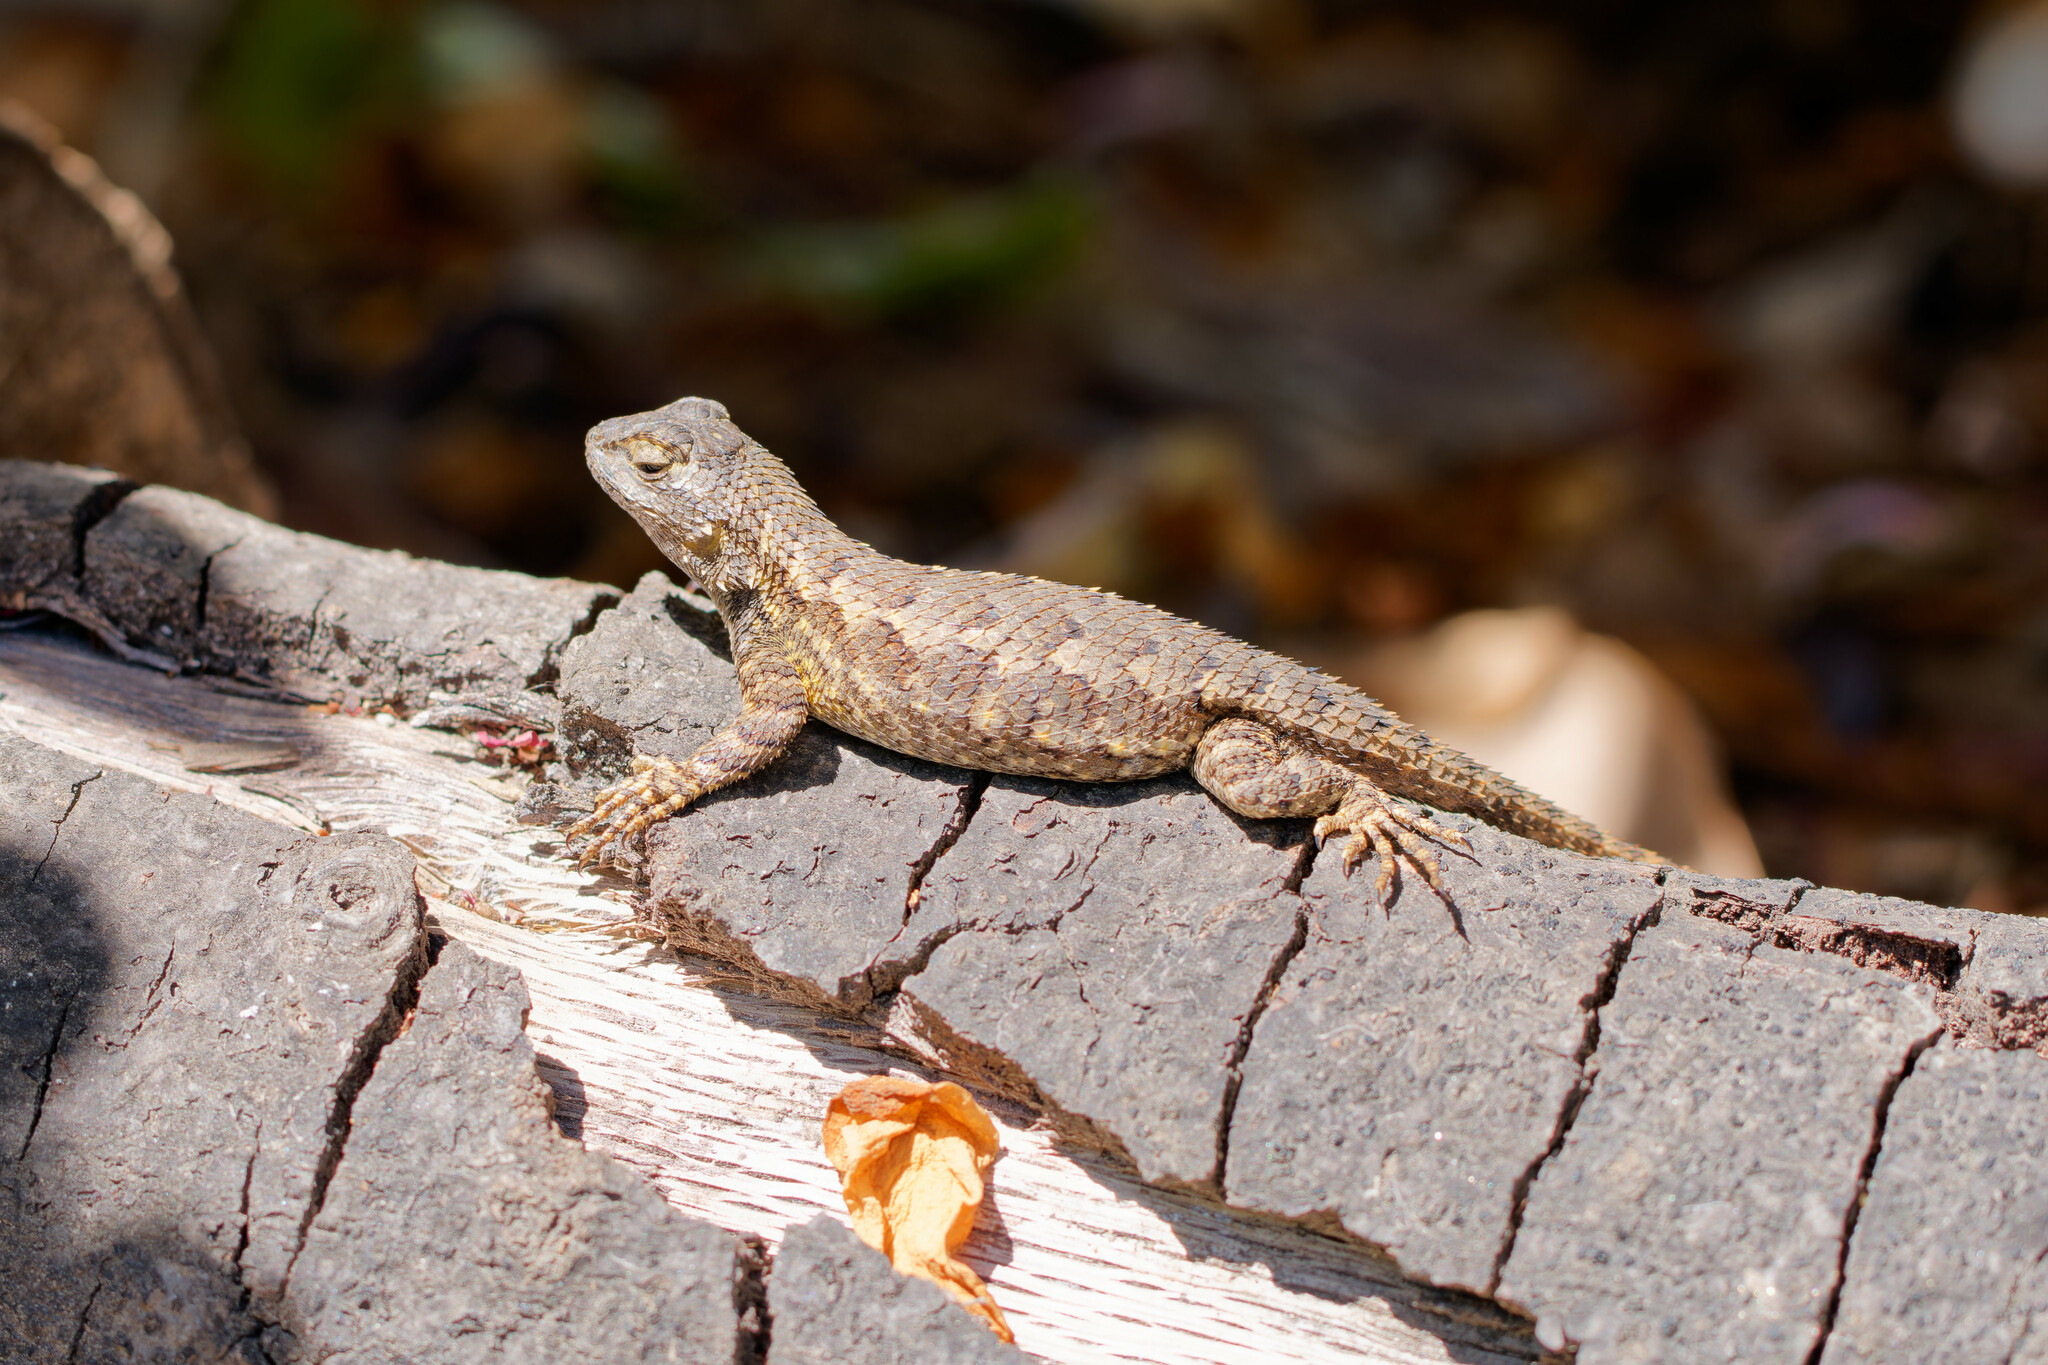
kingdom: Animalia
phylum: Chordata
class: Squamata
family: Phrynosomatidae
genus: Sceloporus
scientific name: Sceloporus occidentalis
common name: Western fence lizard
